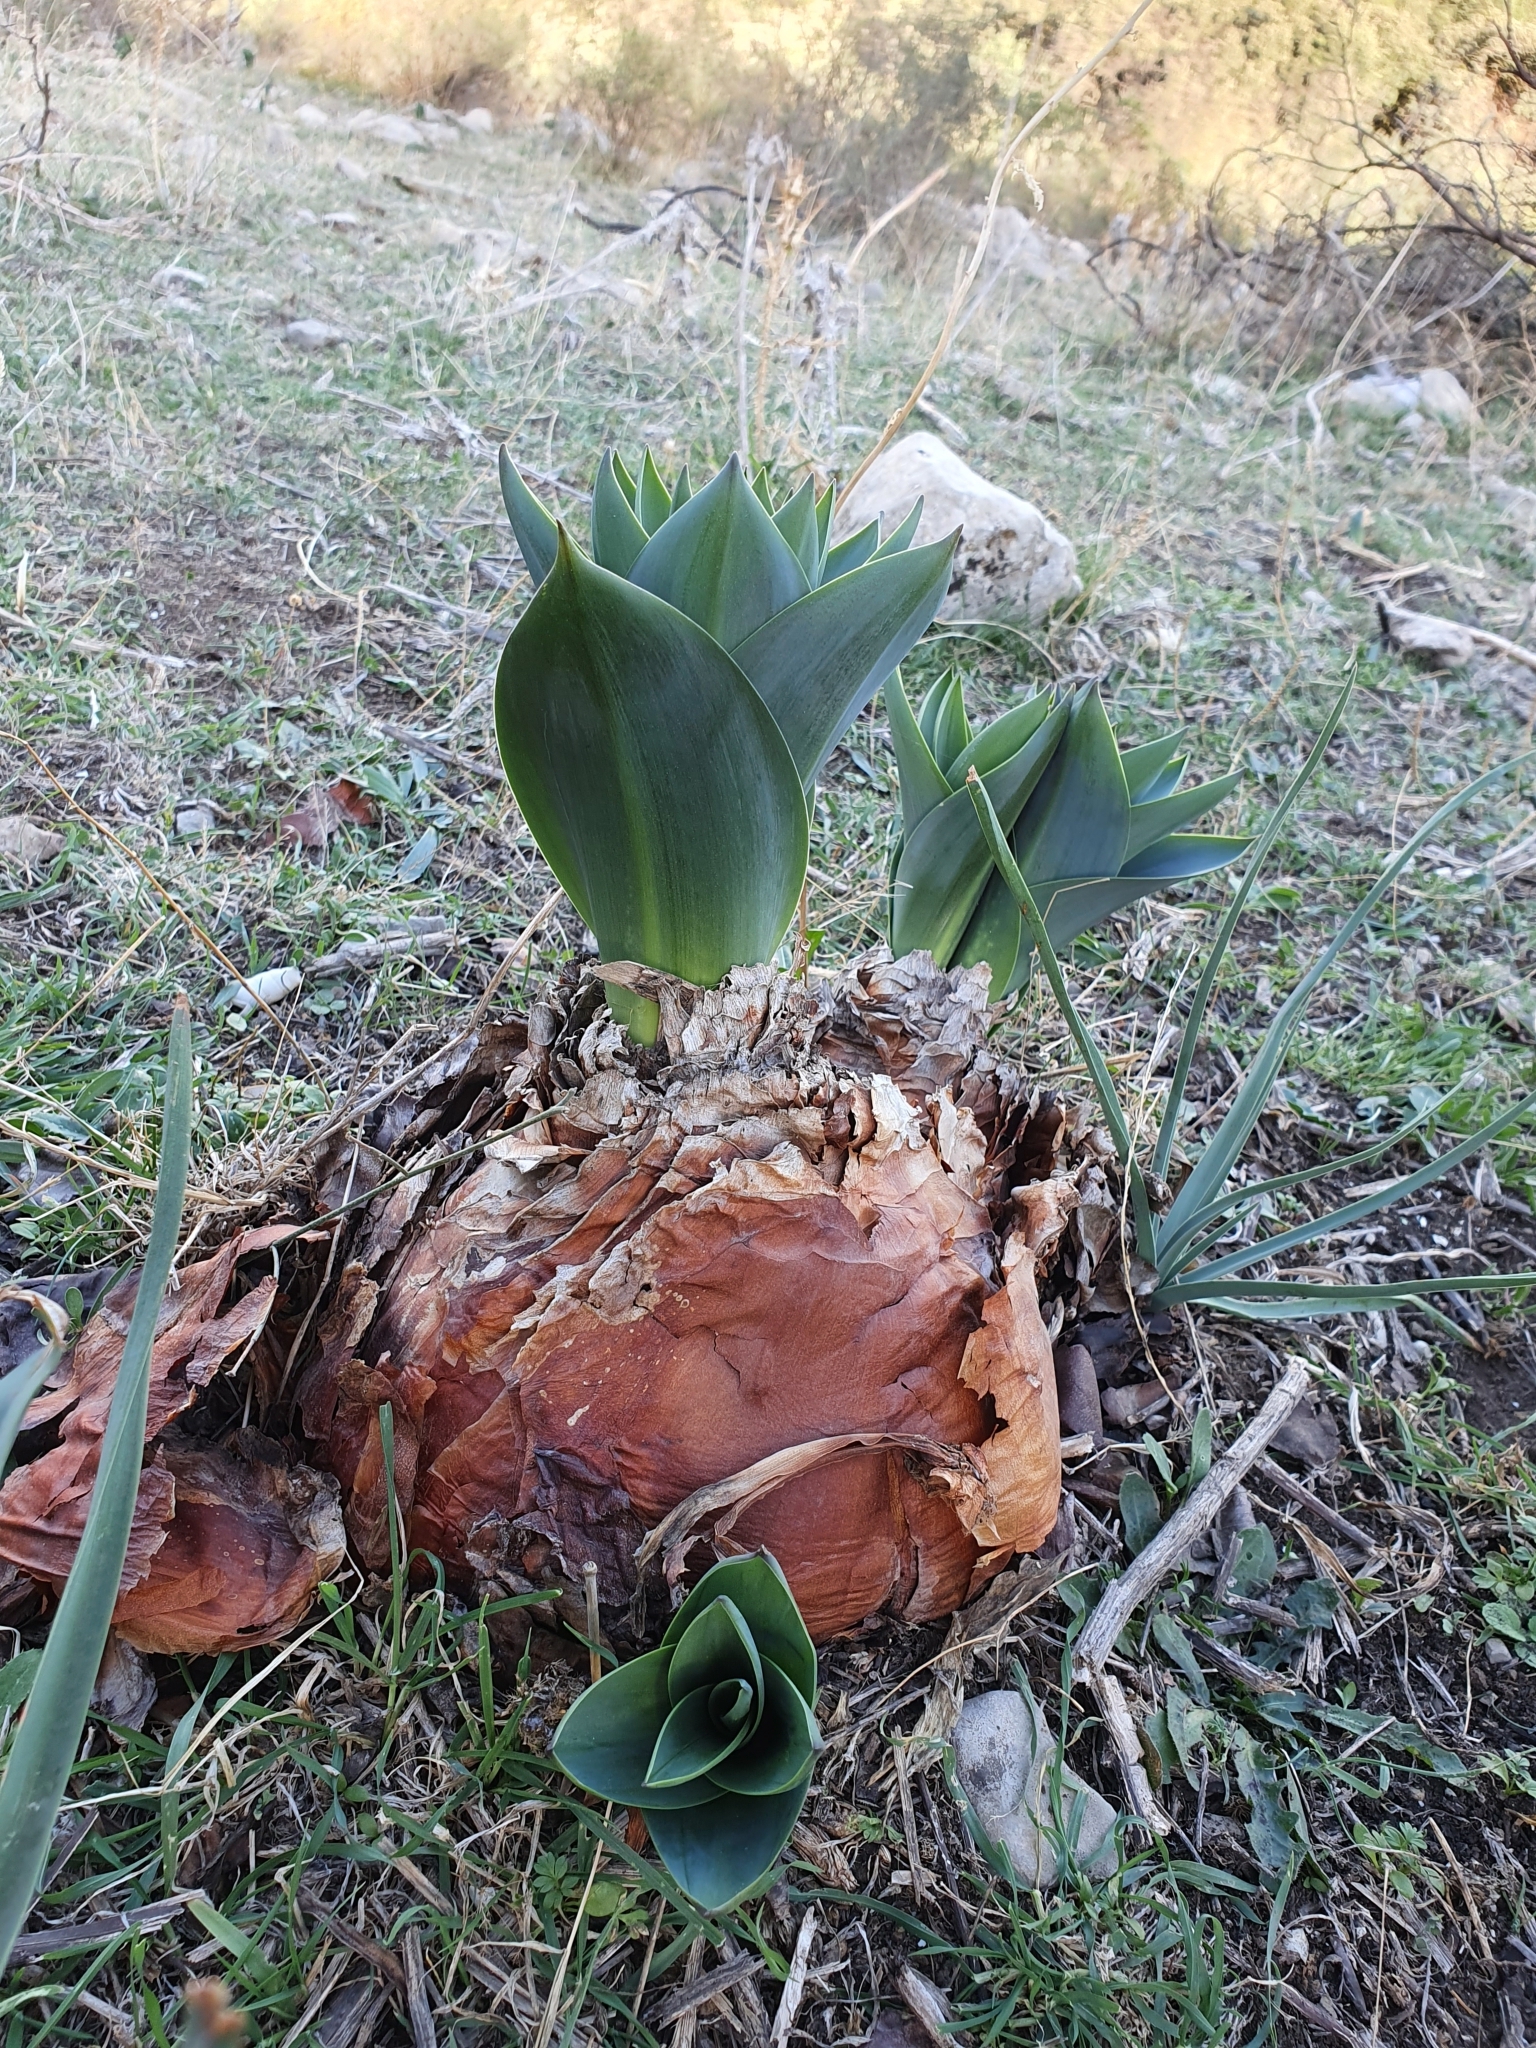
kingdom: Plantae
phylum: Tracheophyta
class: Liliopsida
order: Asparagales
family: Asparagaceae
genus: Drimia
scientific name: Drimia numidica
